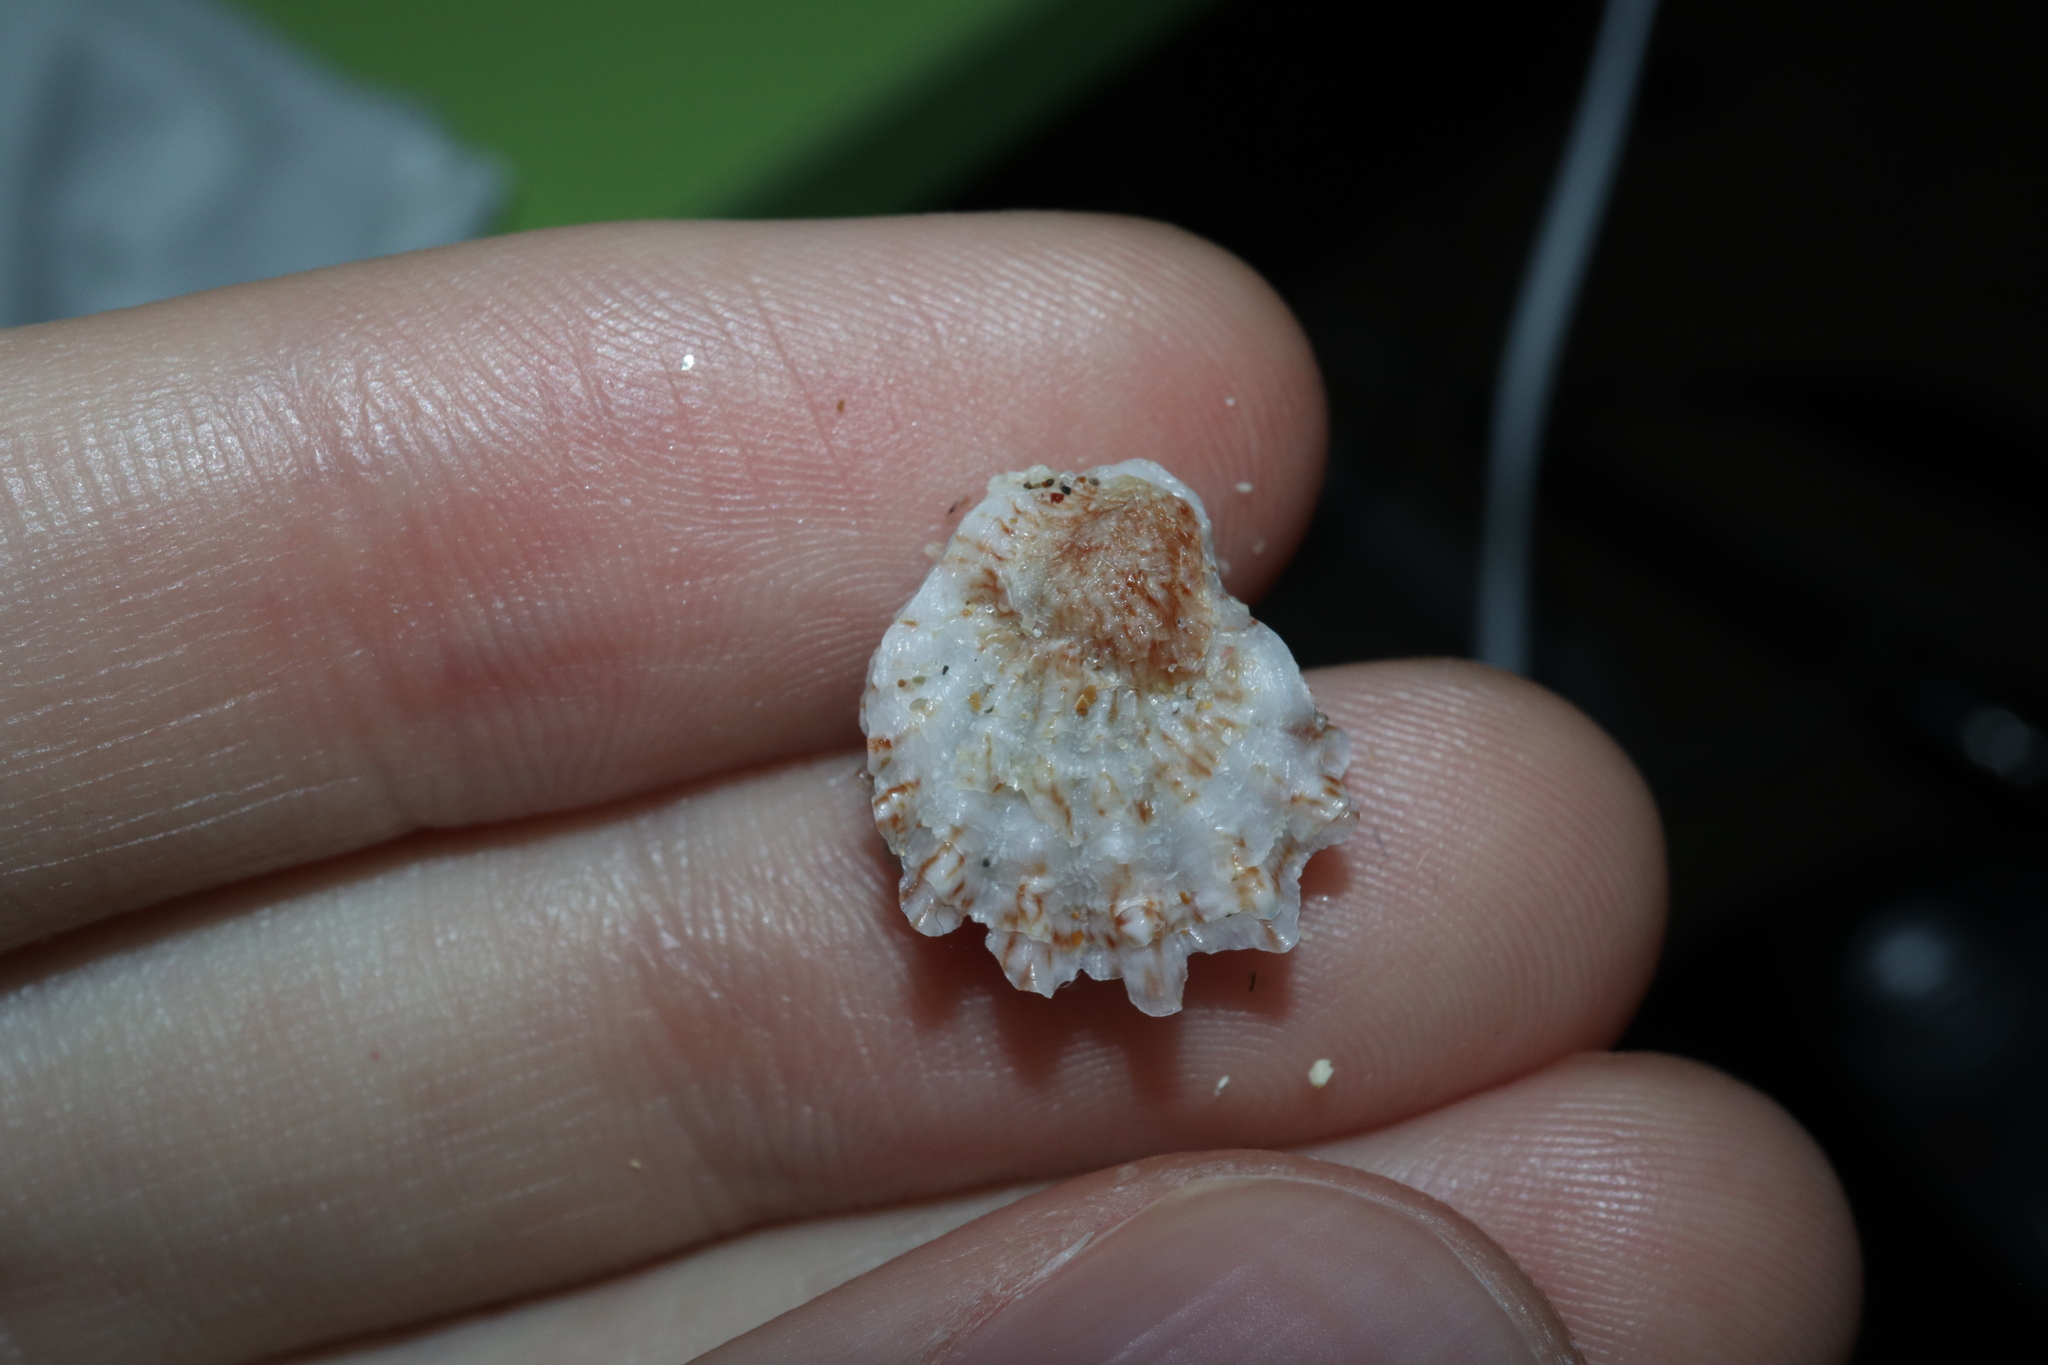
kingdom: Animalia
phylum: Mollusca
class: Bivalvia
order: Pectinida
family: Plicatulidae
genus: Plicatula
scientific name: Plicatula plicata
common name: Plicate kitten's paw
